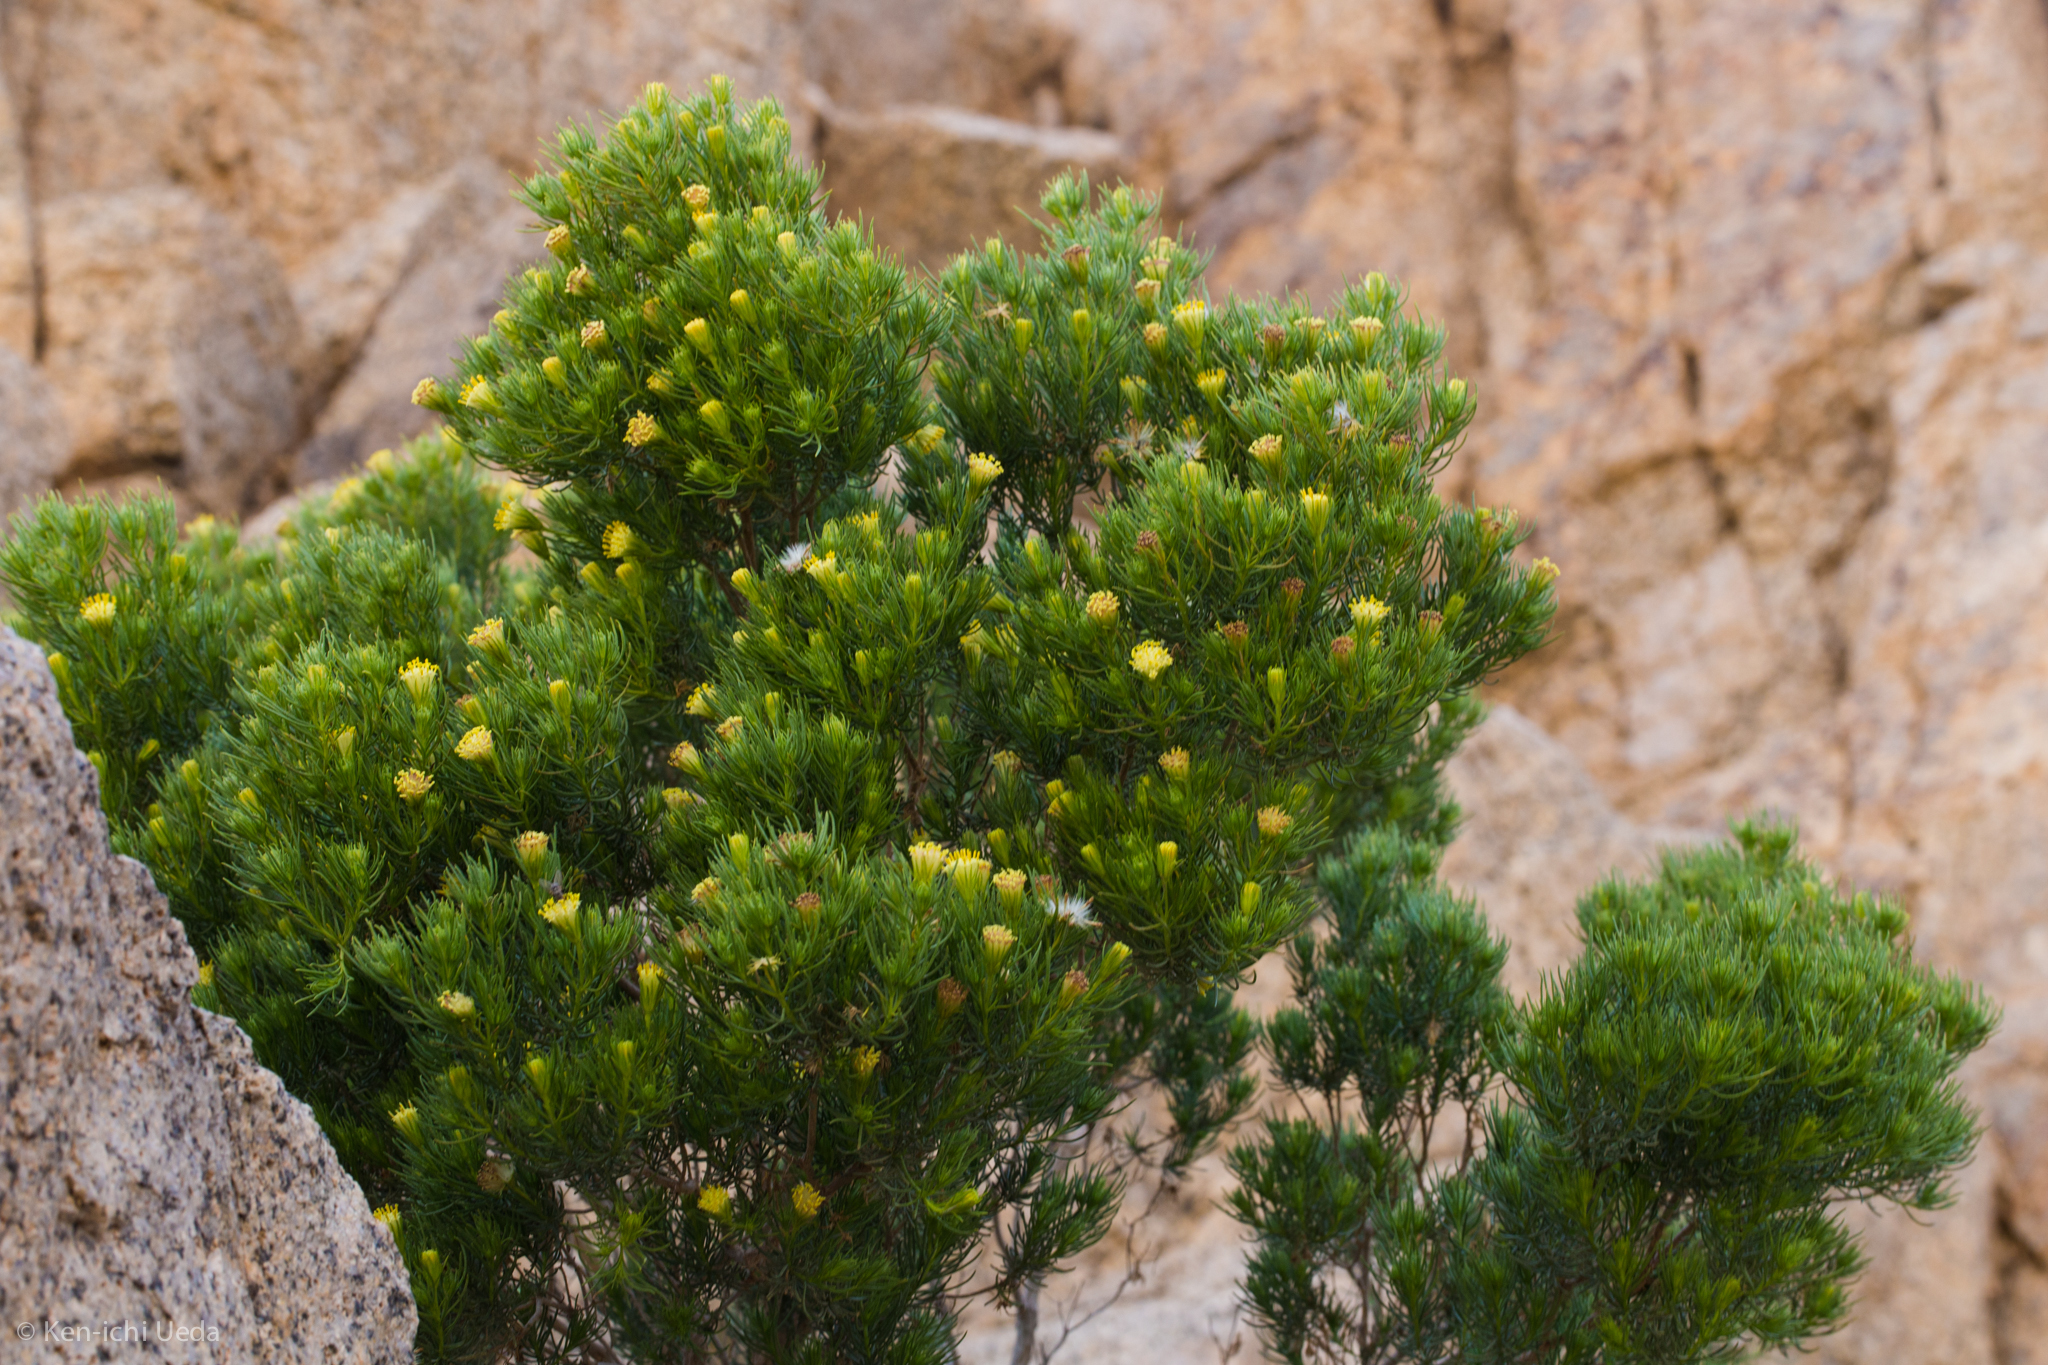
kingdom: Plantae
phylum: Tracheophyta
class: Magnoliopsida
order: Asterales
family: Asteraceae
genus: Peucephyllum
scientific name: Peucephyllum schottii
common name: Pygmy-cedar
